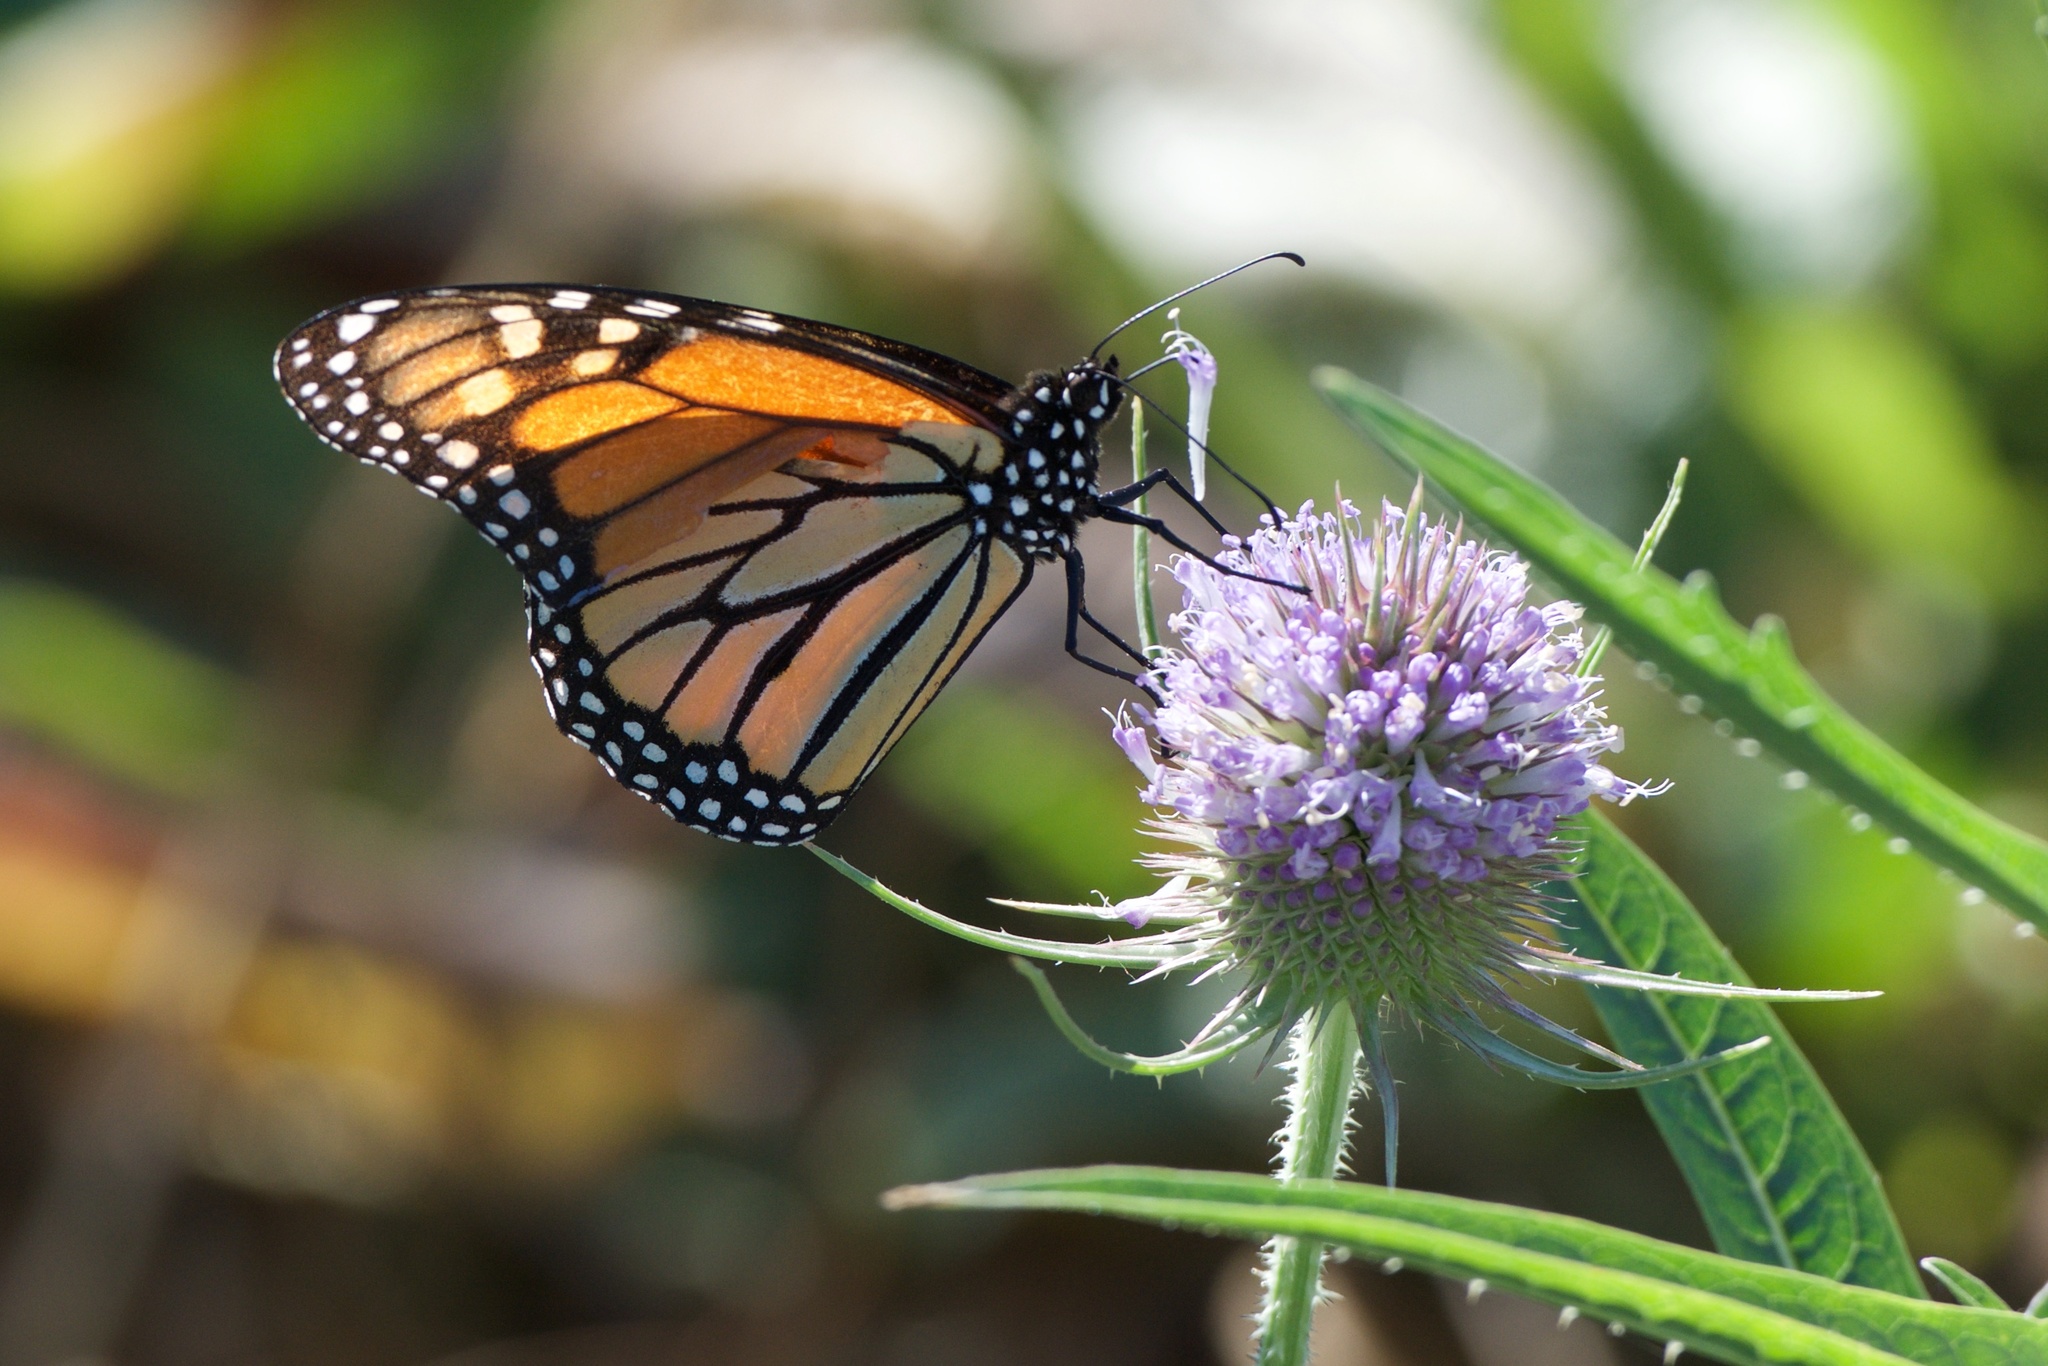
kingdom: Animalia
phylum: Arthropoda
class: Insecta
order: Lepidoptera
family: Nymphalidae
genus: Danaus
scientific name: Danaus plexippus
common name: Monarch
